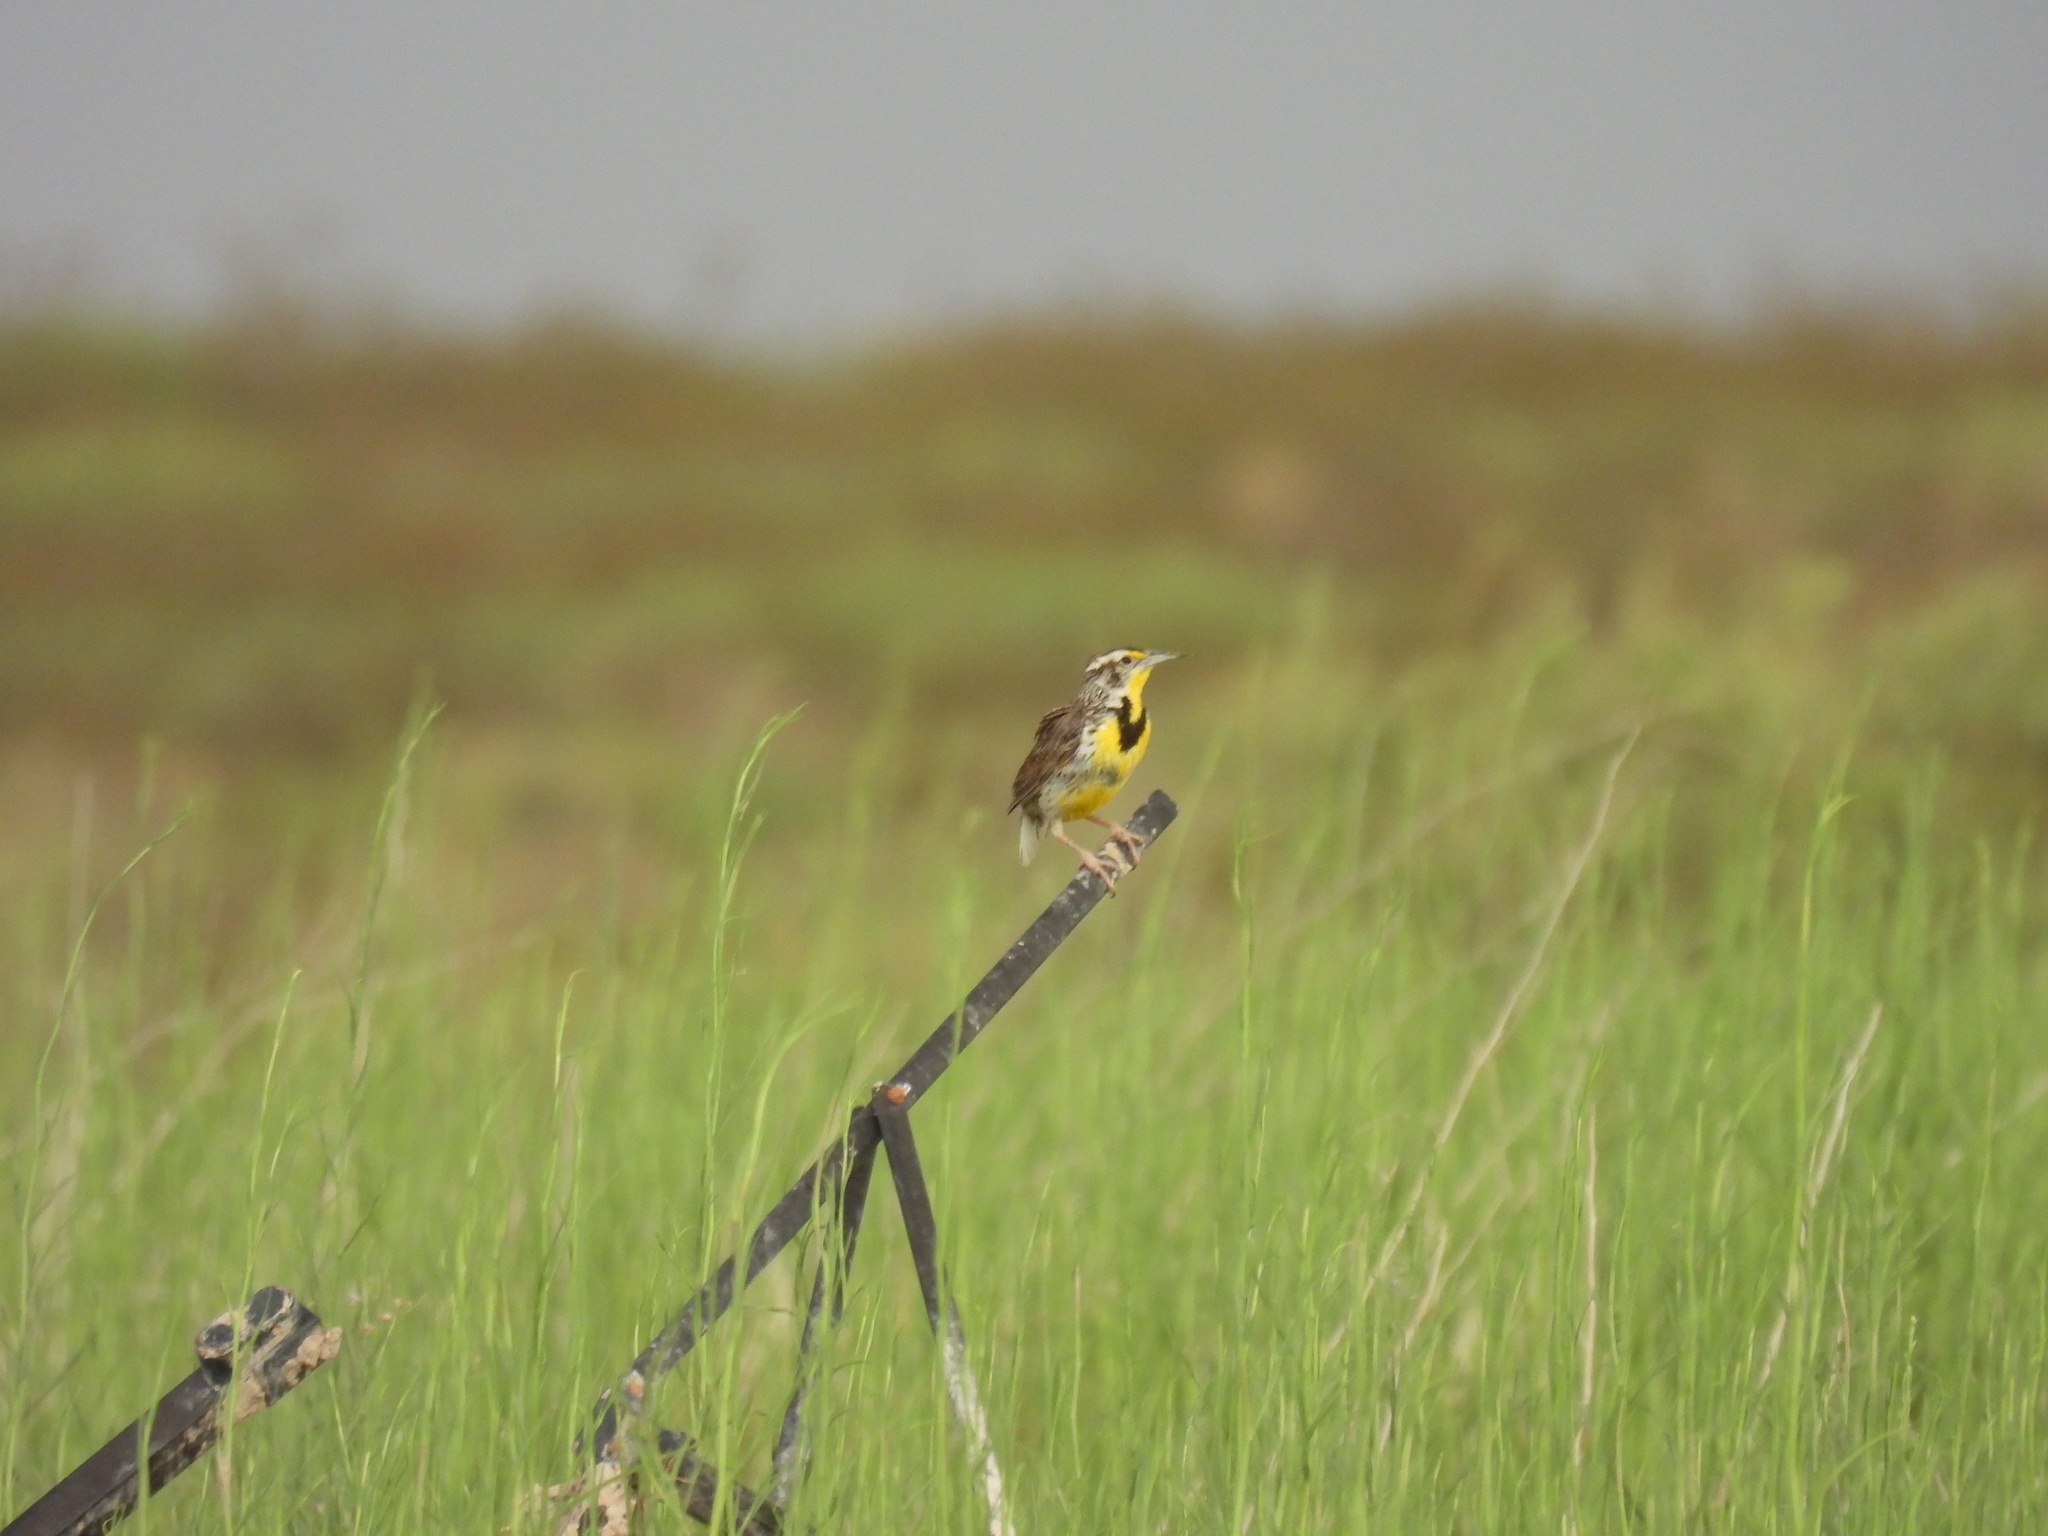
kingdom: Animalia
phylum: Chordata
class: Aves
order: Passeriformes
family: Icteridae
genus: Sturnella
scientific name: Sturnella neglecta
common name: Western meadowlark
